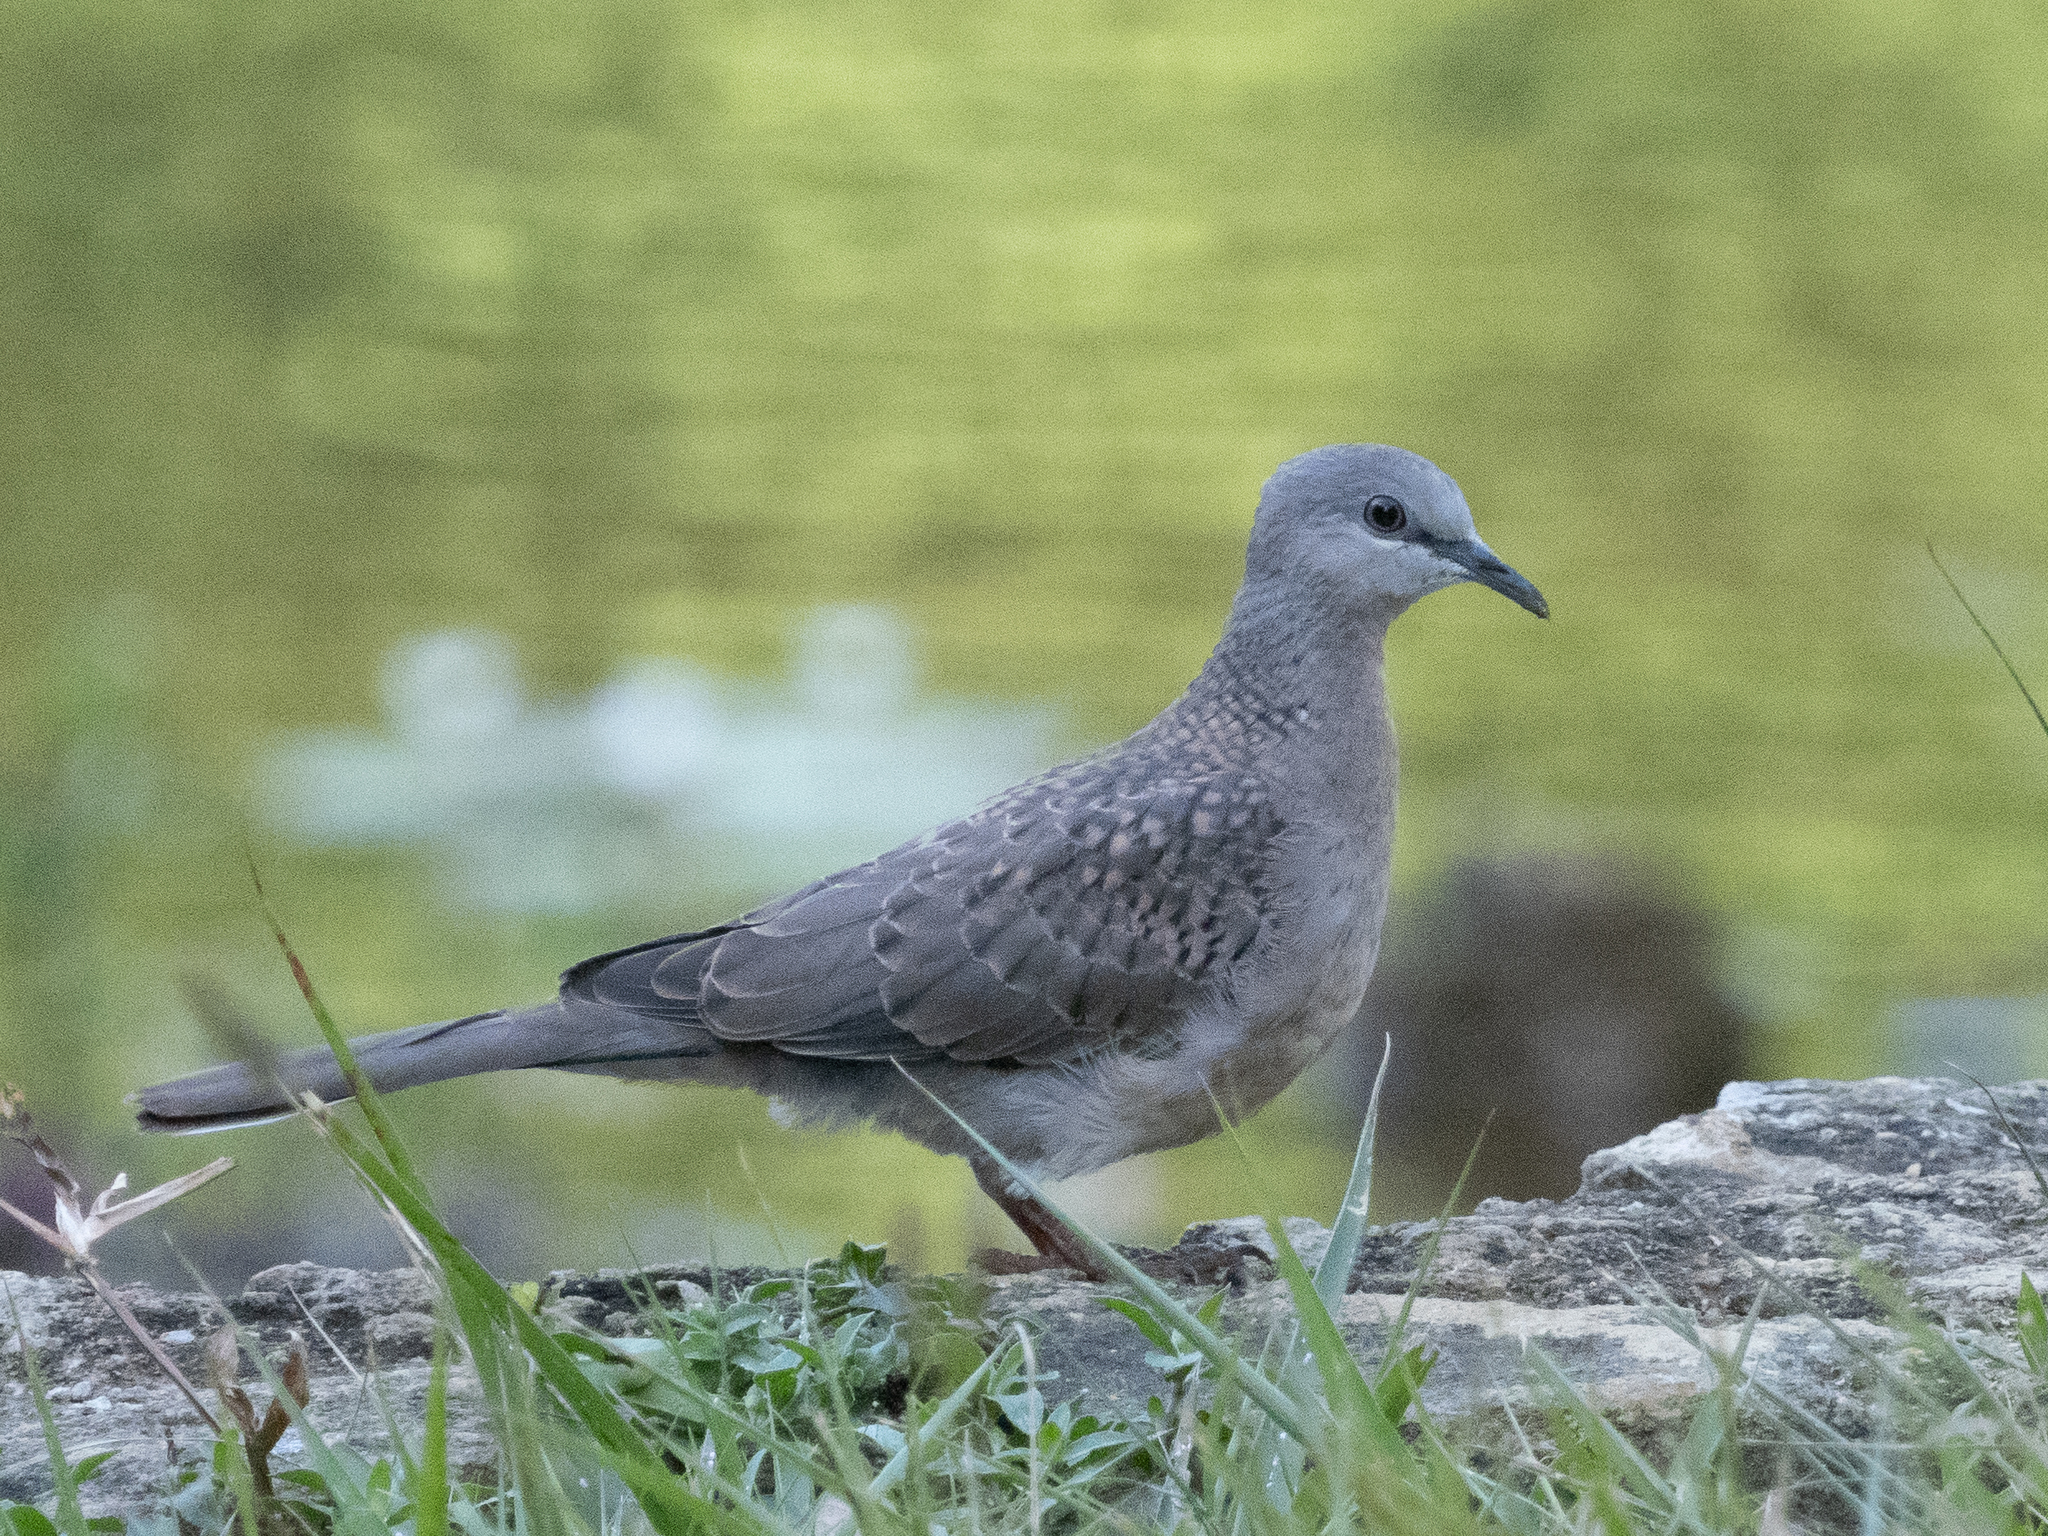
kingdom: Animalia
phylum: Chordata
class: Aves
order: Columbiformes
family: Columbidae
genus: Spilopelia
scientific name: Spilopelia chinensis
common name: Spotted dove
